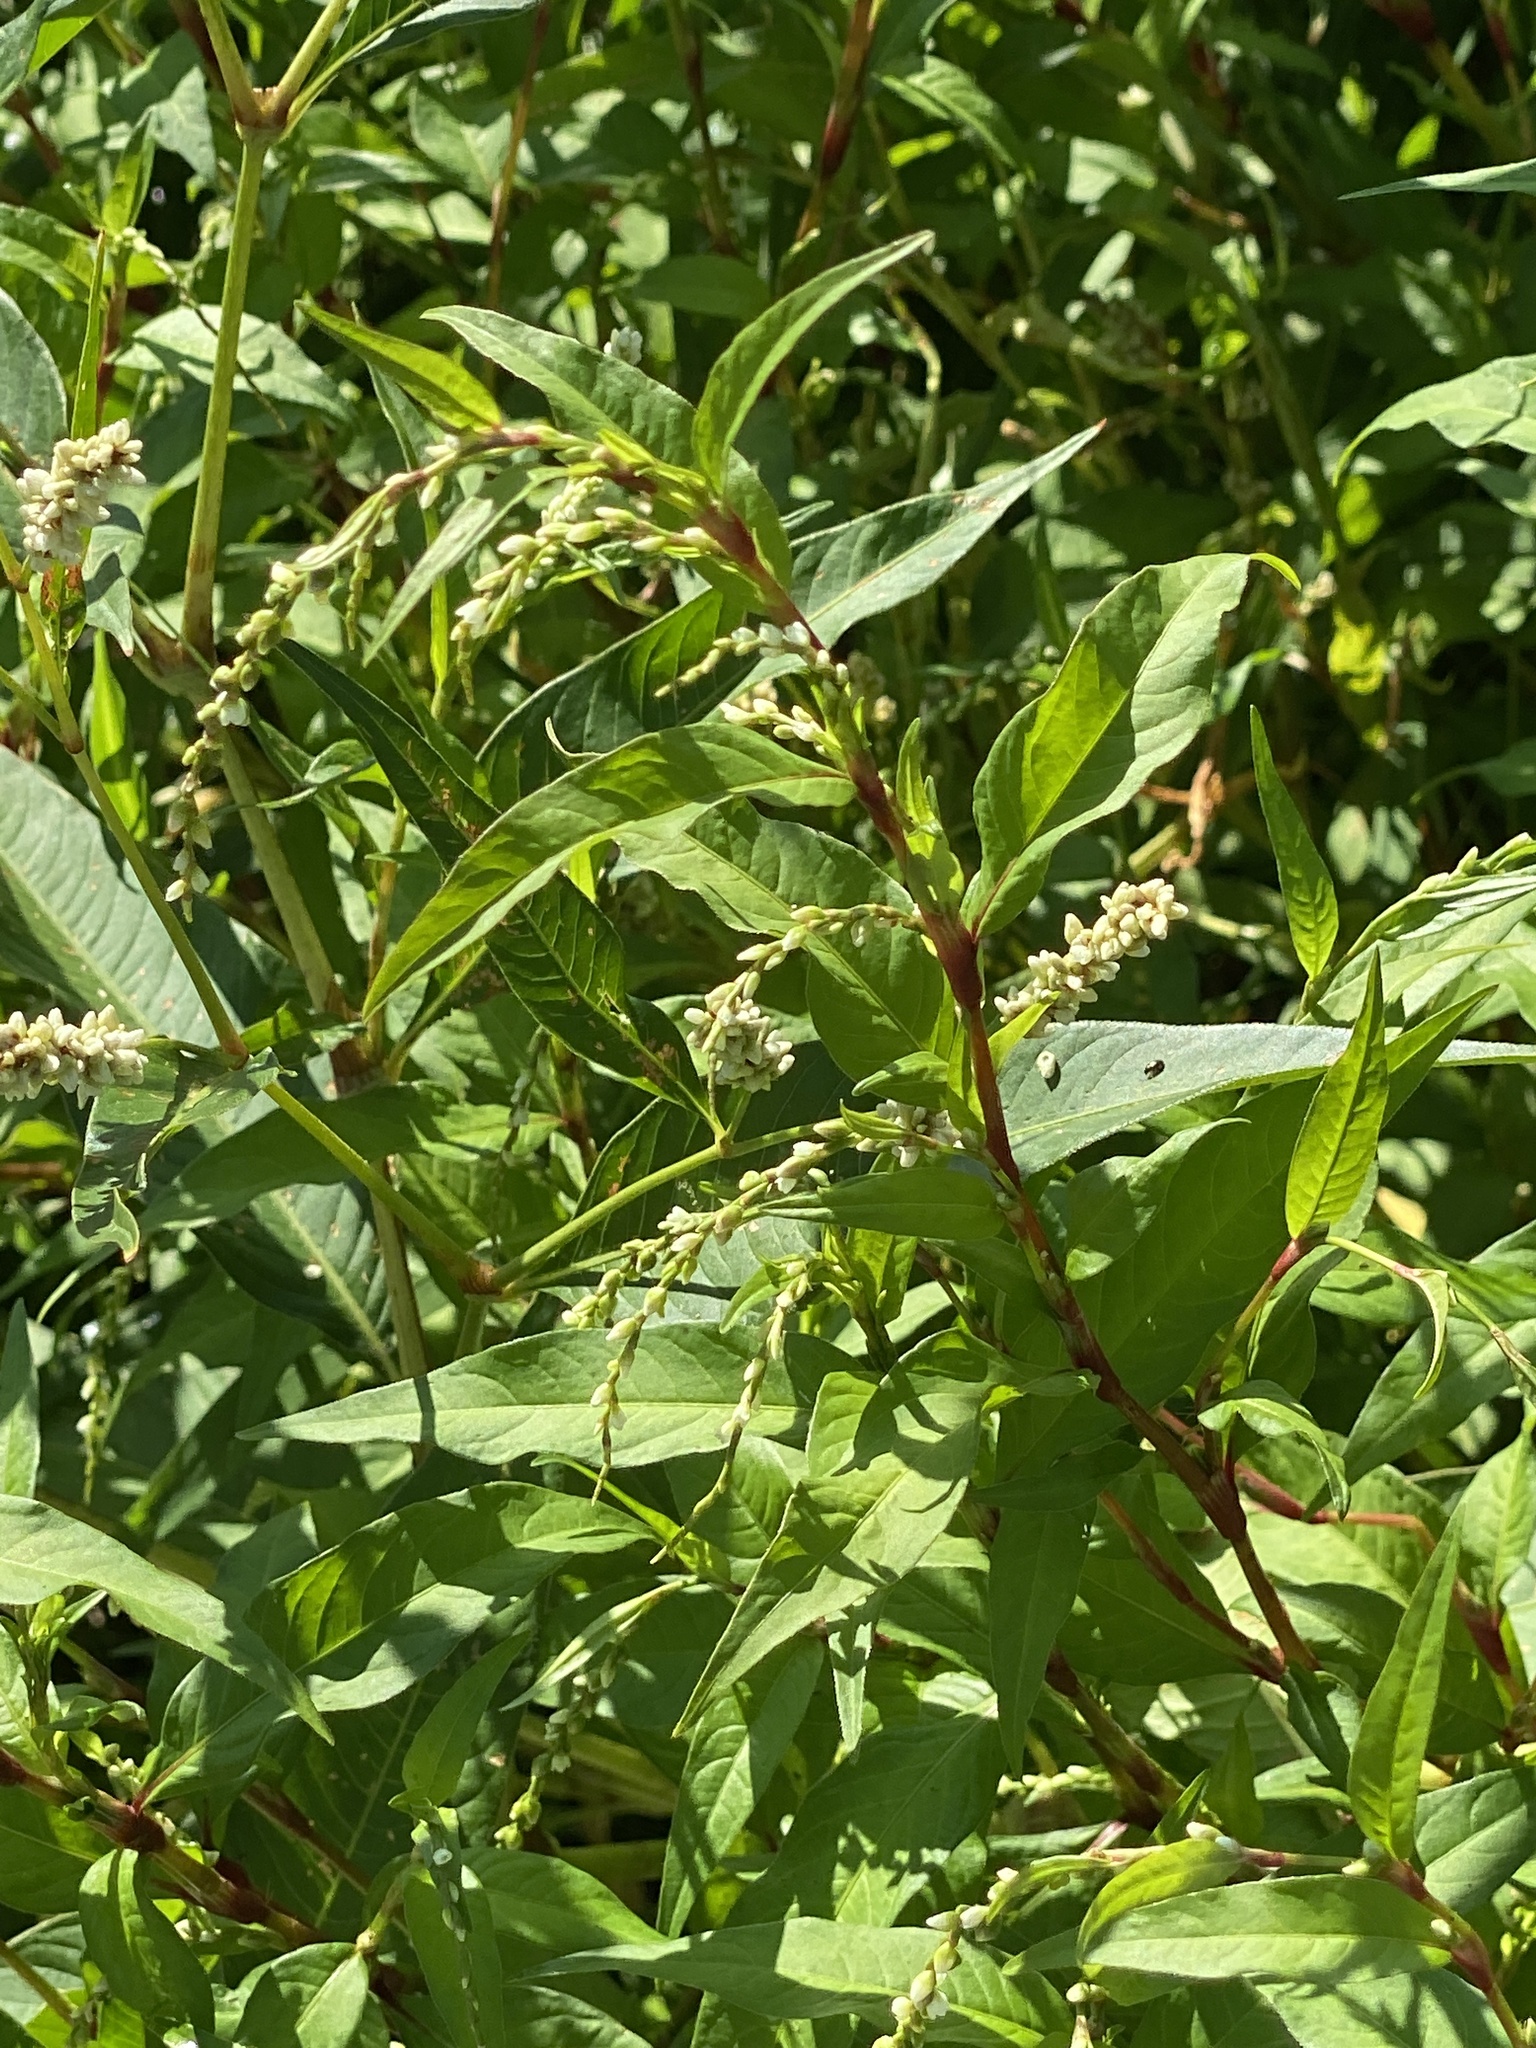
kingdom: Plantae
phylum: Tracheophyta
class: Magnoliopsida
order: Caryophyllales
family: Polygonaceae
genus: Persicaria
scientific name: Persicaria hydropiper
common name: Water-pepper
